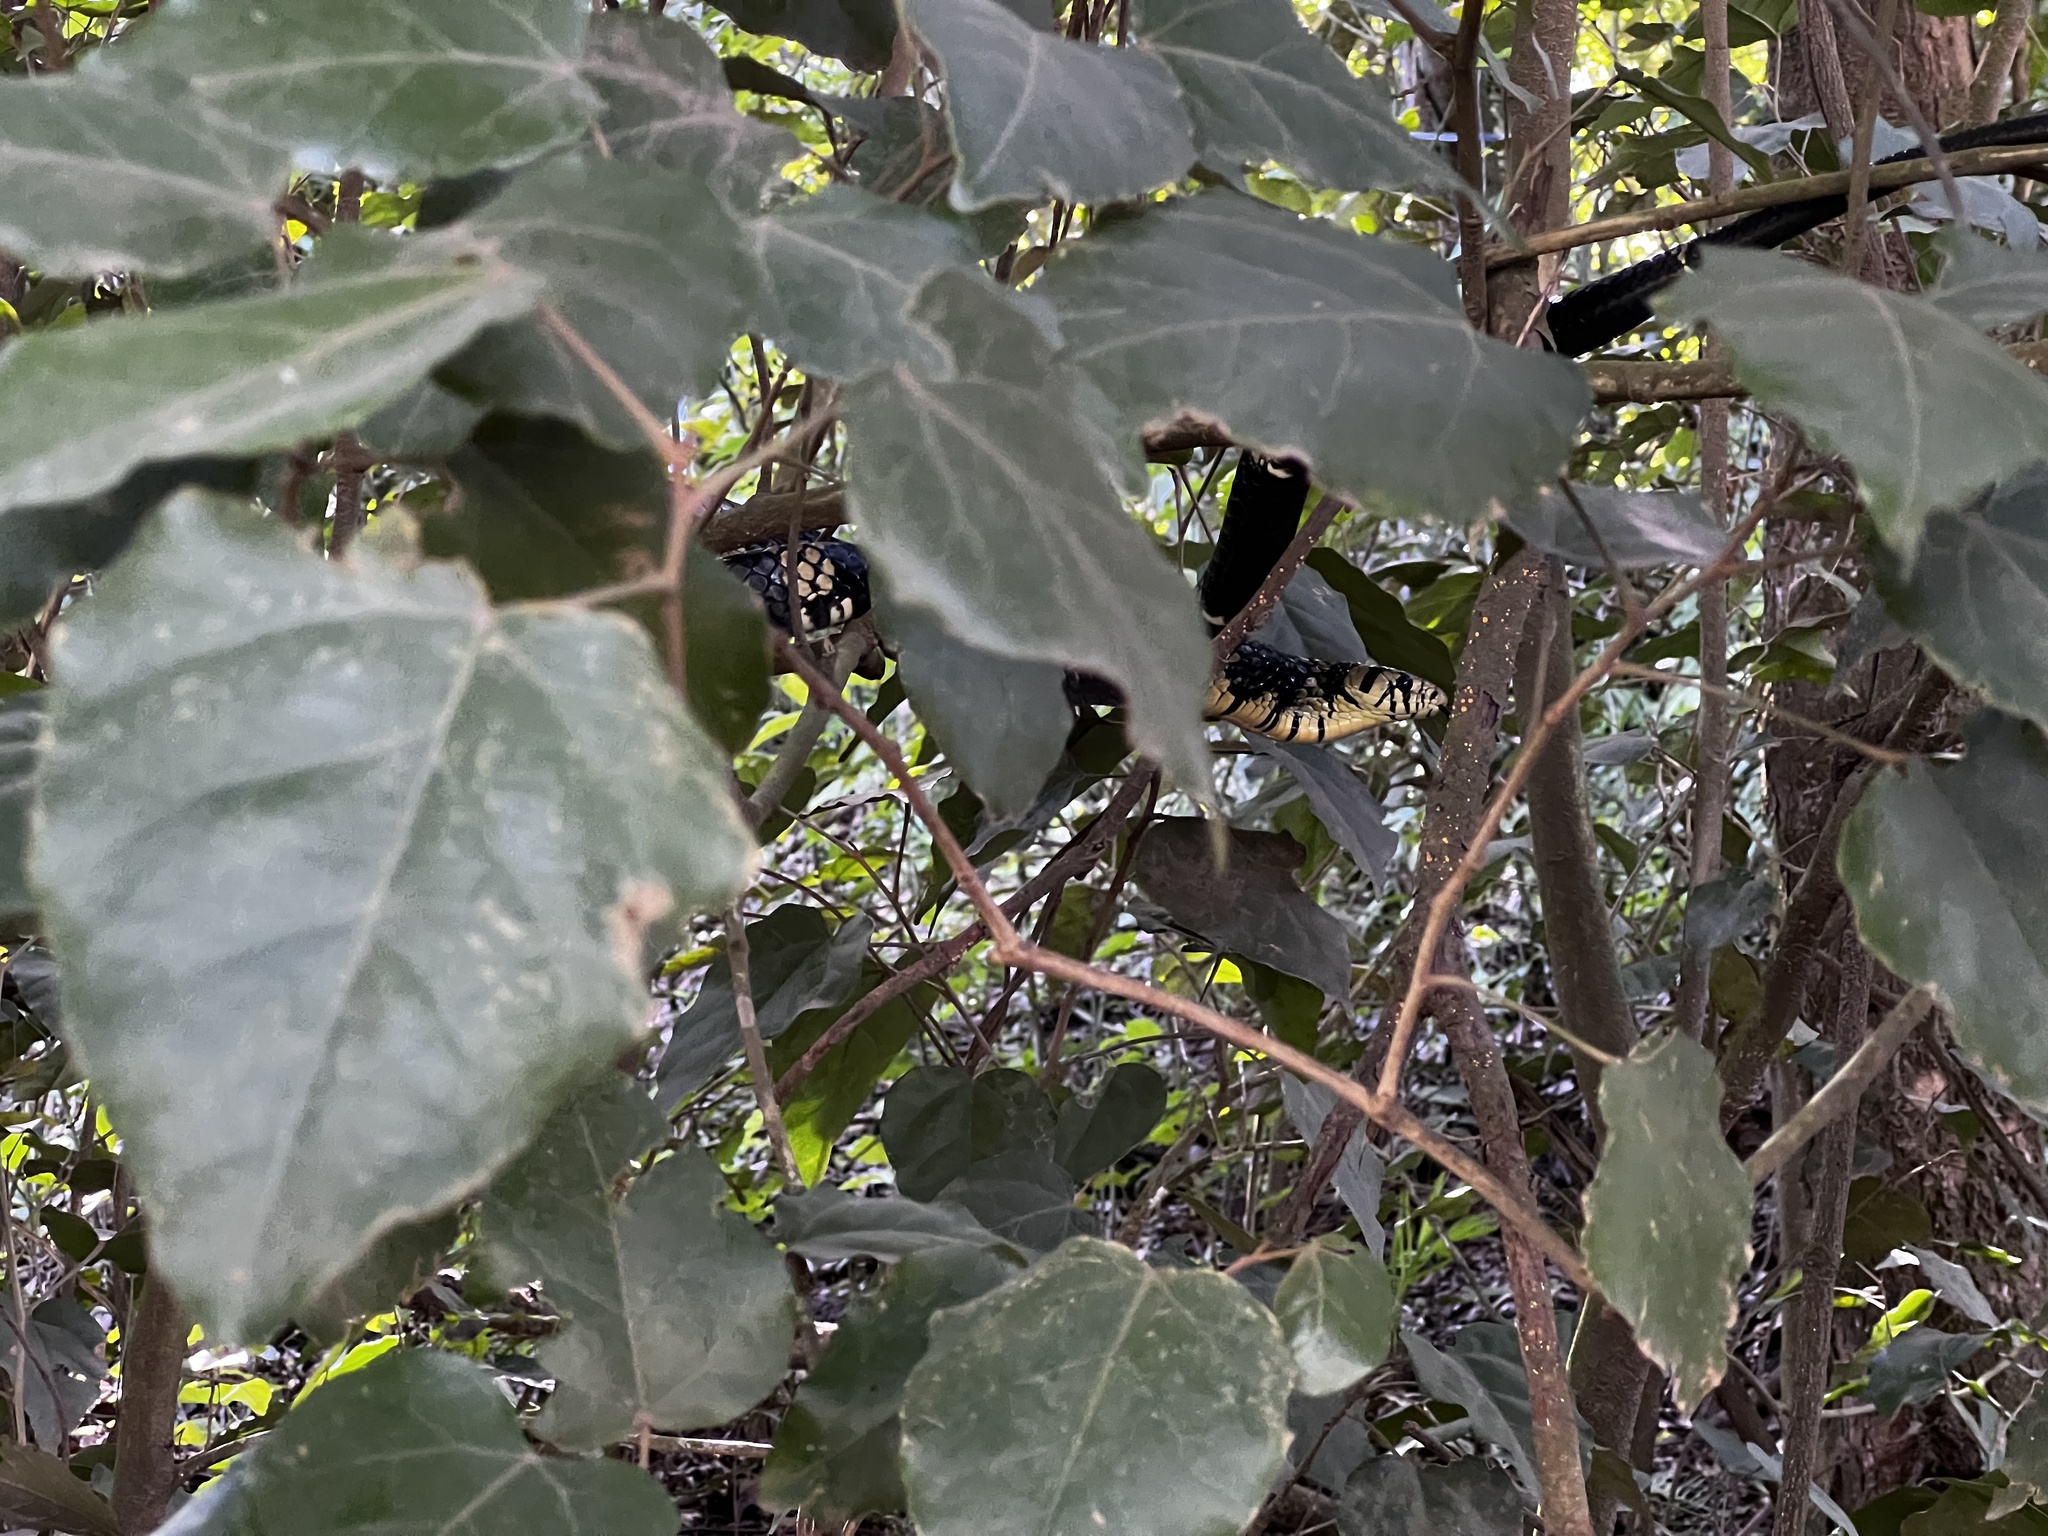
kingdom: Animalia
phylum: Chordata
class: Squamata
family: Colubridae
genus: Spilotes
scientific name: Spilotes pullatus
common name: Chicken snake
